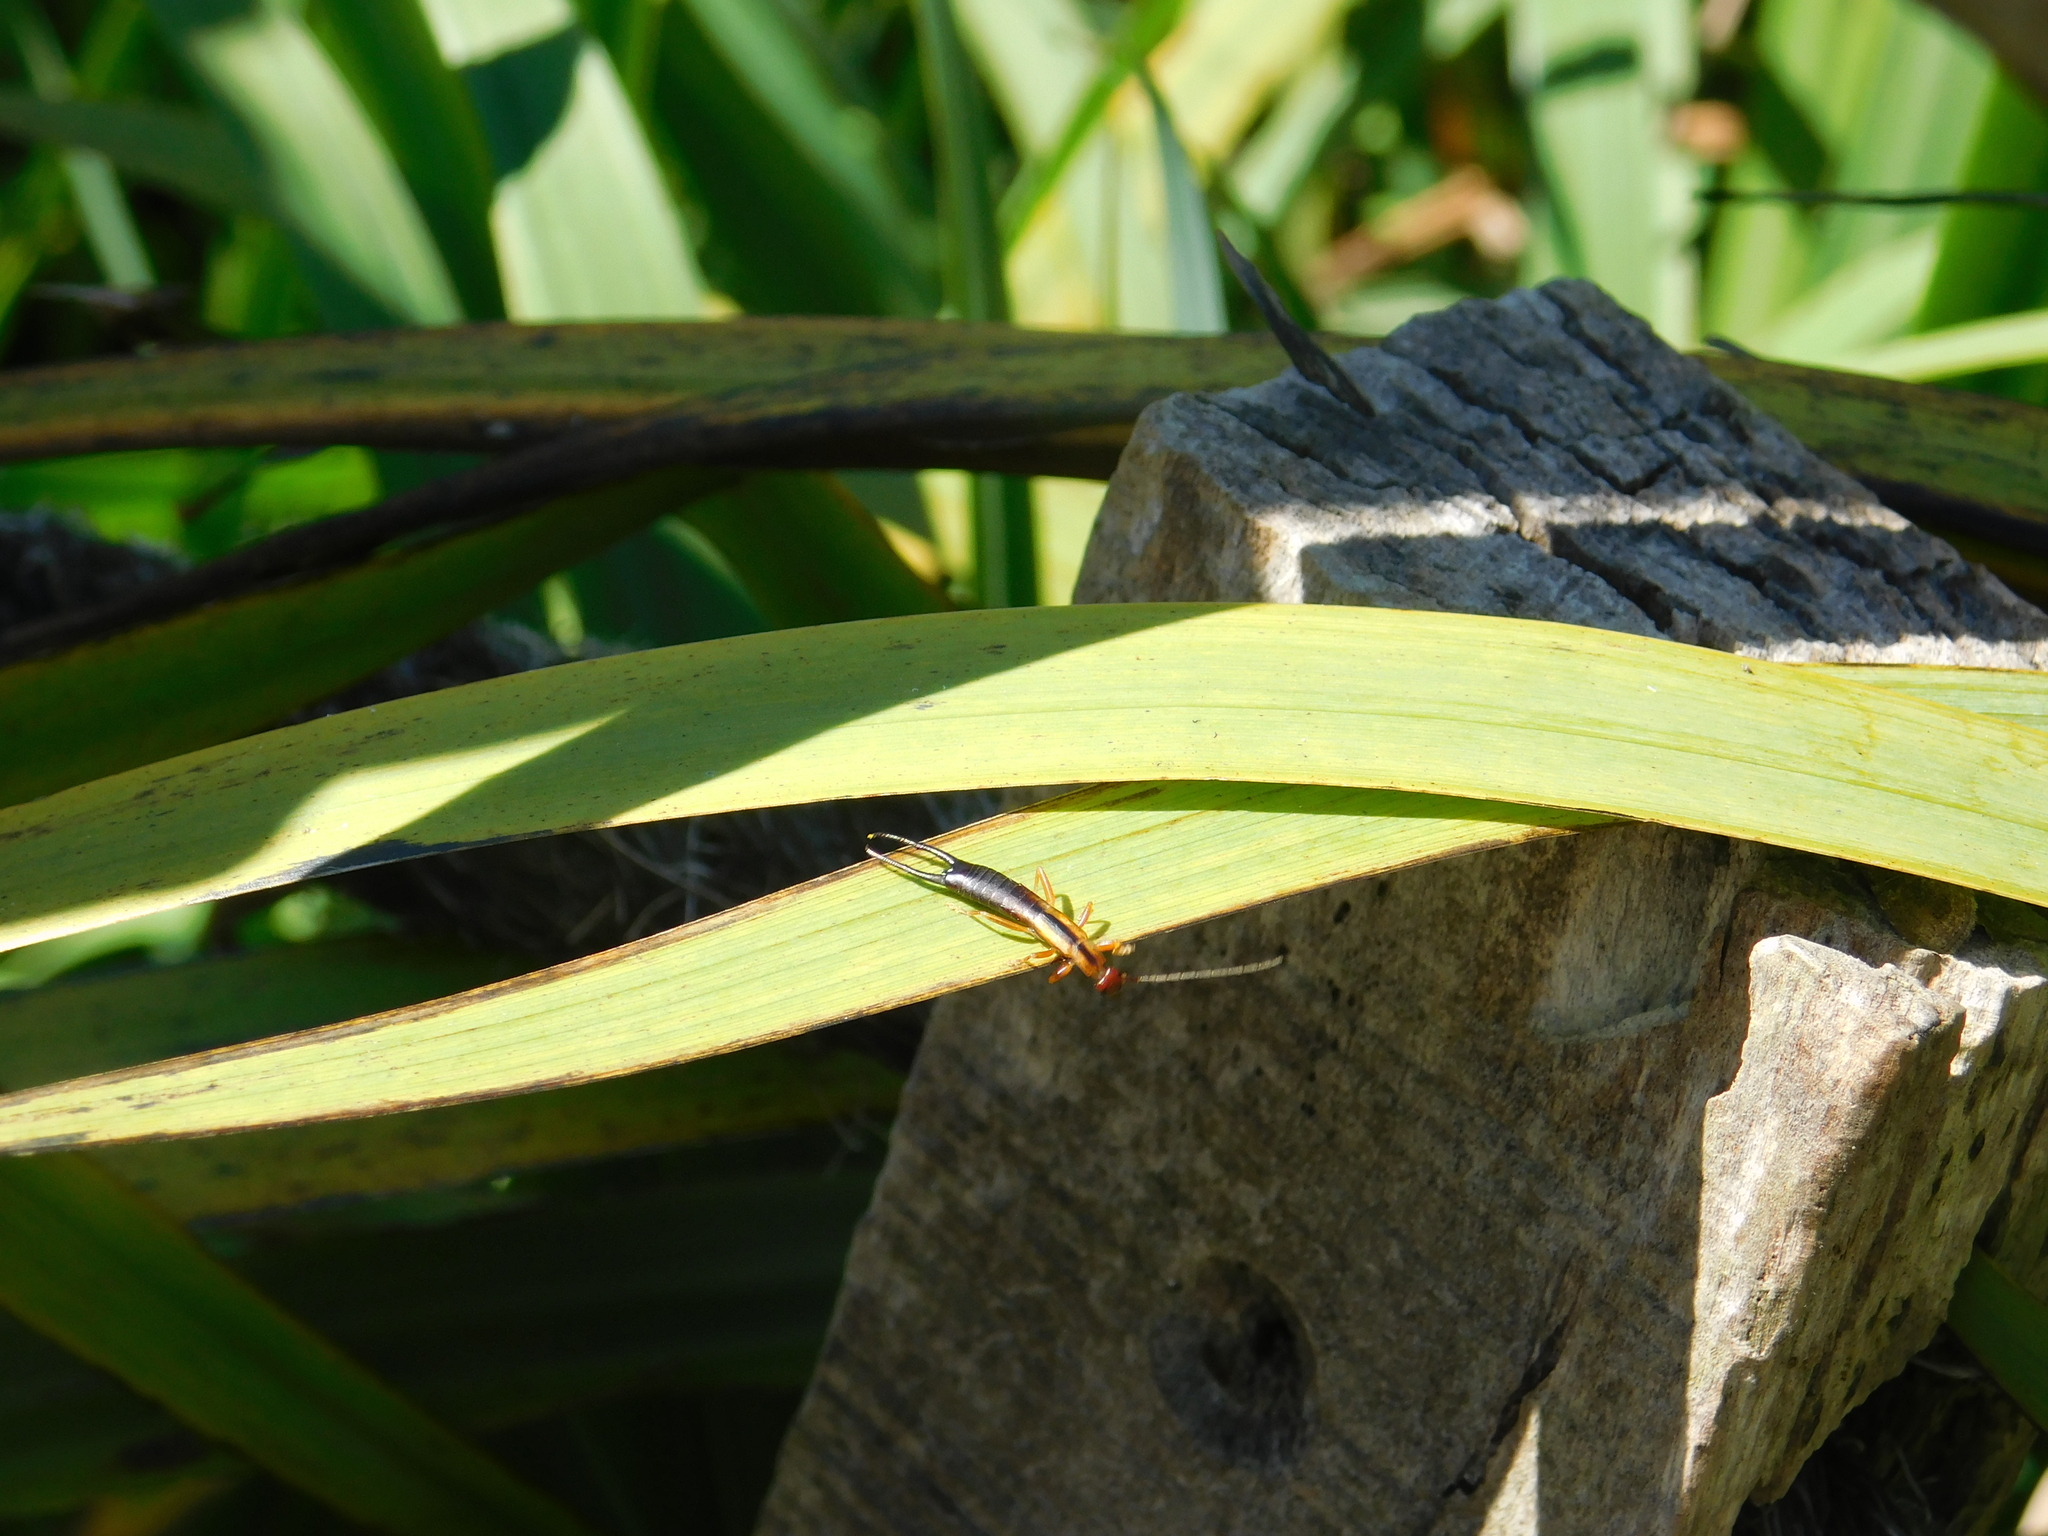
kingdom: Animalia
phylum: Arthropoda
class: Insecta
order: Dermaptera
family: Forficulidae
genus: Doru
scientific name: Doru
